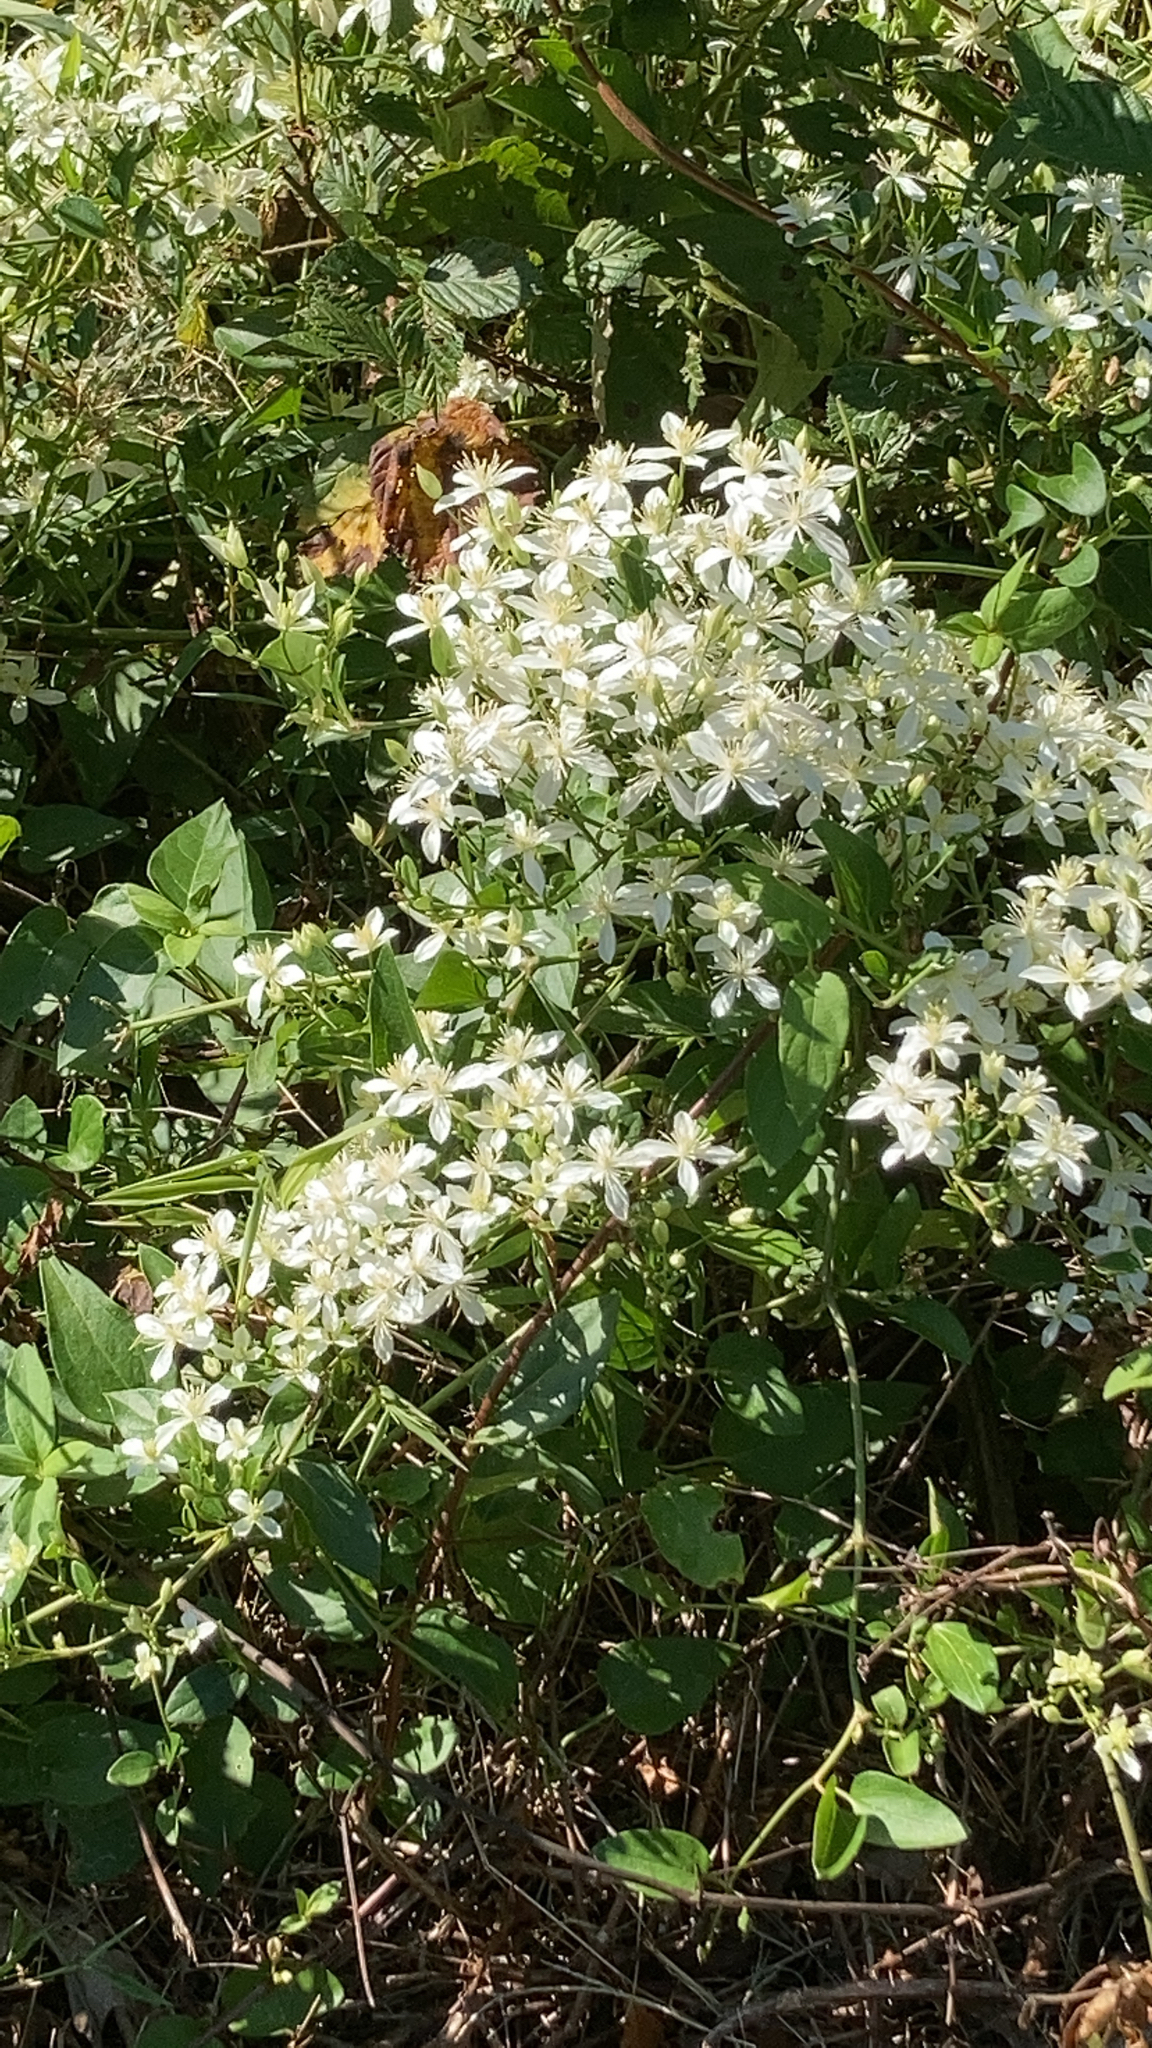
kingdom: Plantae
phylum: Tracheophyta
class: Magnoliopsida
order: Ranunculales
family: Ranunculaceae
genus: Clematis
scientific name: Clematis terniflora
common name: Sweet autumn clematis
